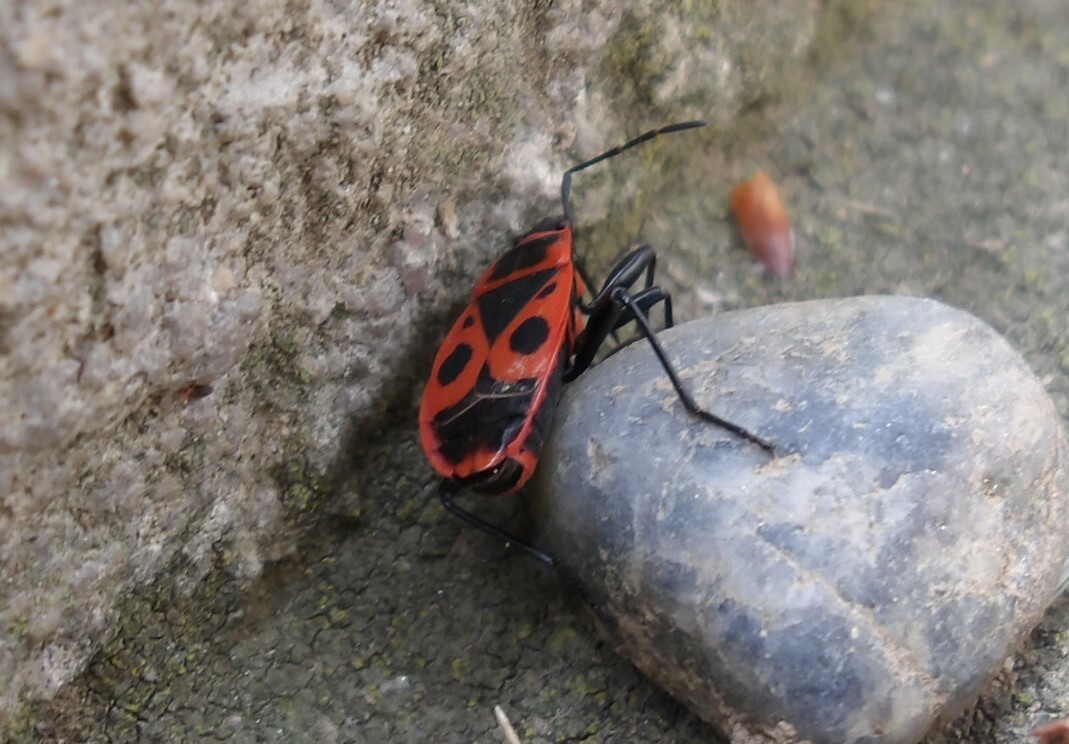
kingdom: Animalia
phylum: Arthropoda
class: Insecta
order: Hemiptera
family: Pyrrhocoridae
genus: Pyrrhocoris
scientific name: Pyrrhocoris apterus
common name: Firebug
